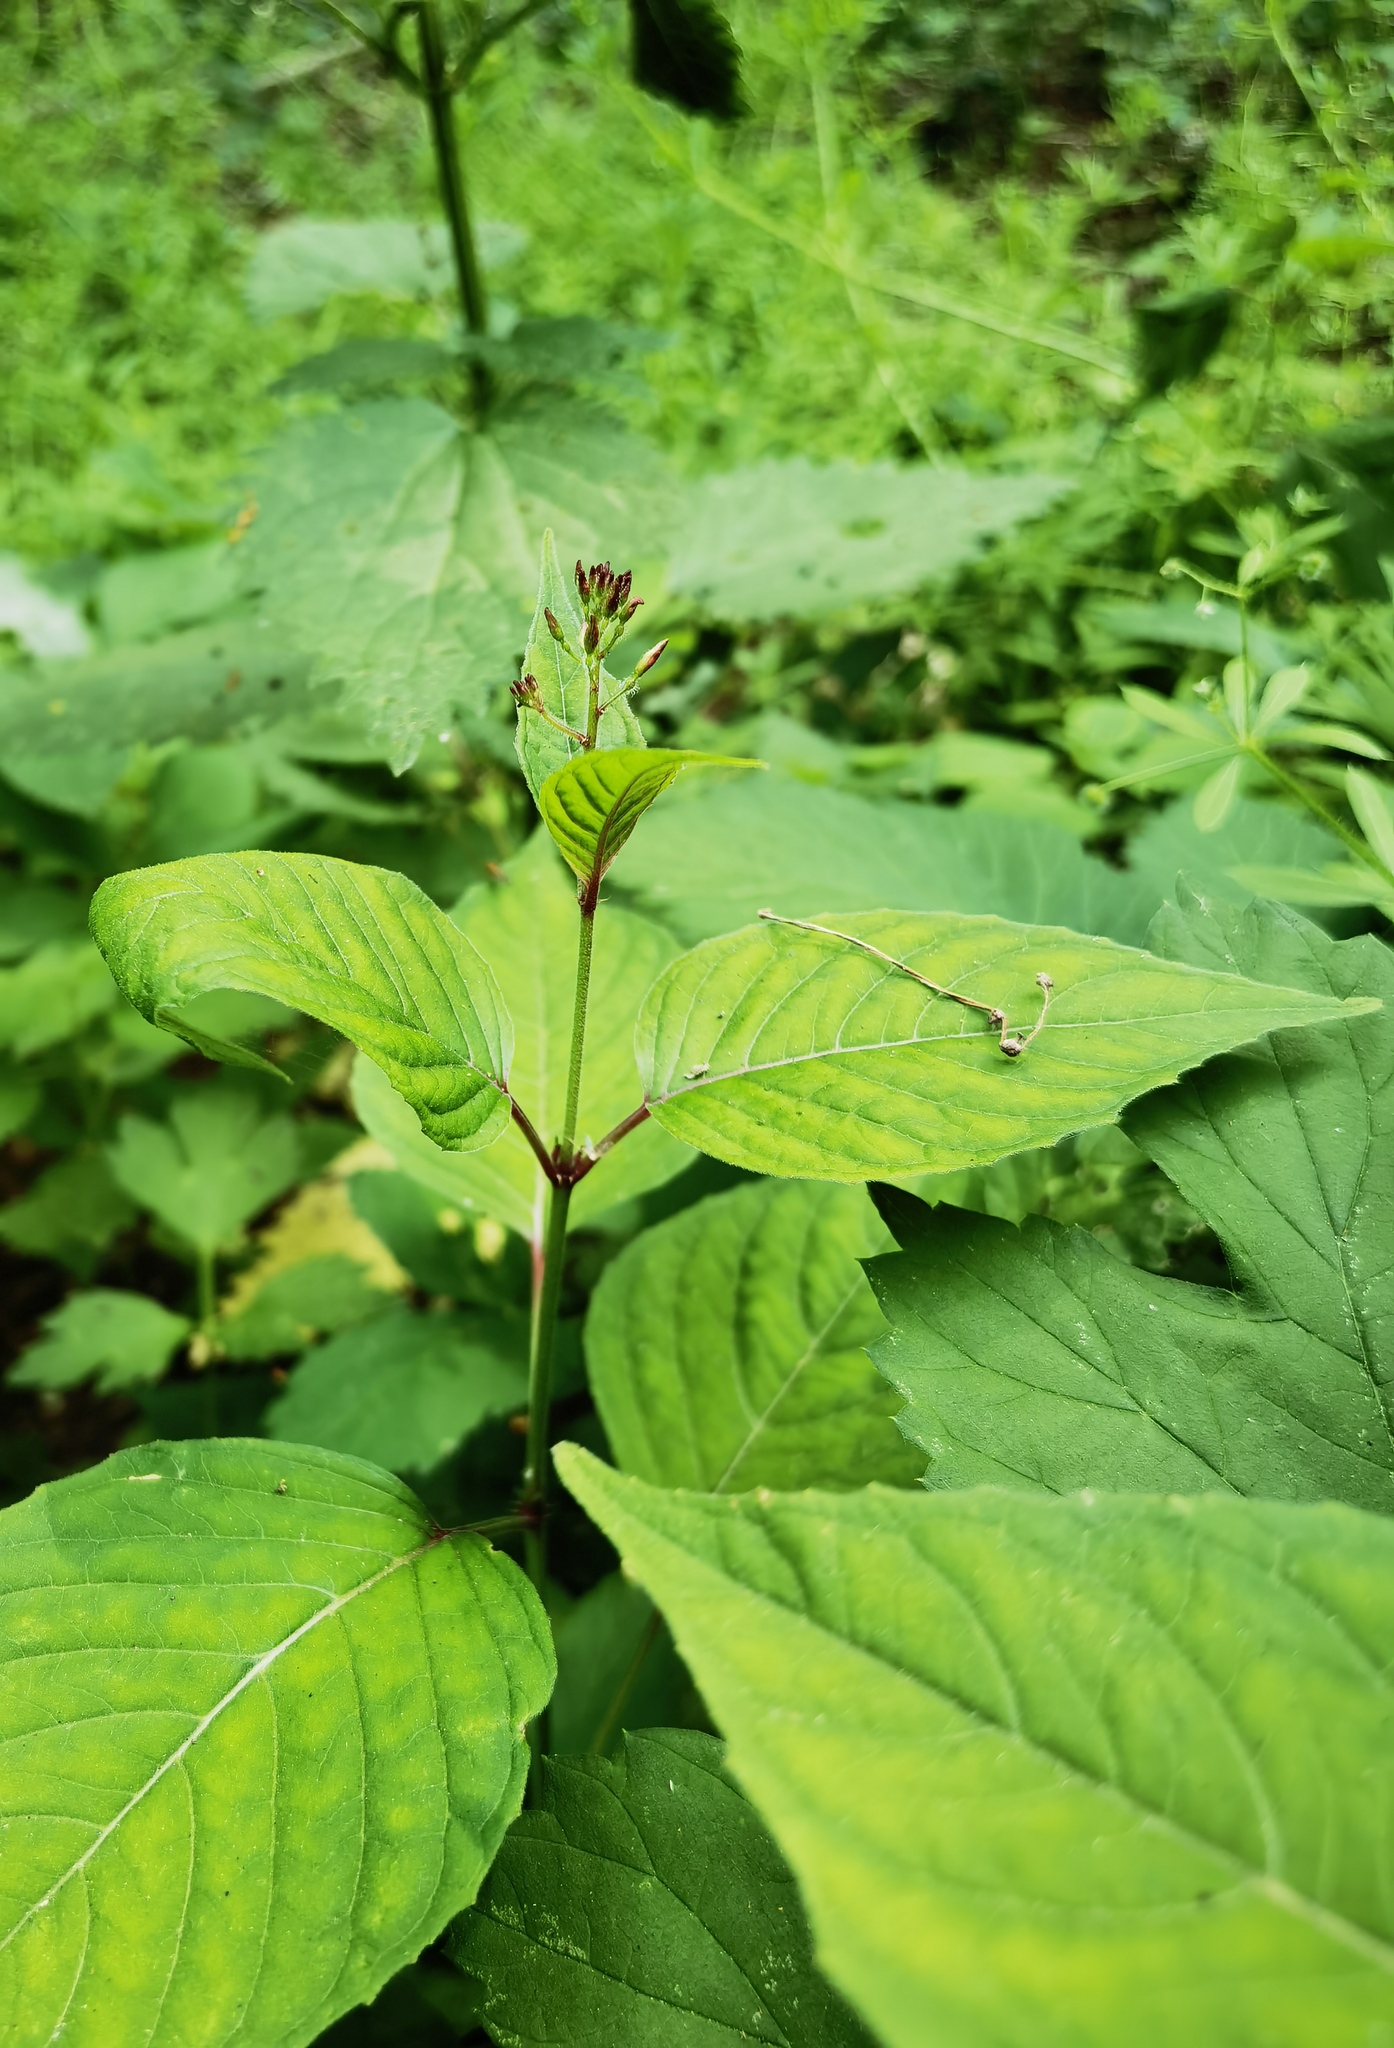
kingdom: Plantae
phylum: Tracheophyta
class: Magnoliopsida
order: Myrtales
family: Onagraceae
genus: Circaea
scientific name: Circaea lutetiana
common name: Enchanter's-nightshade
